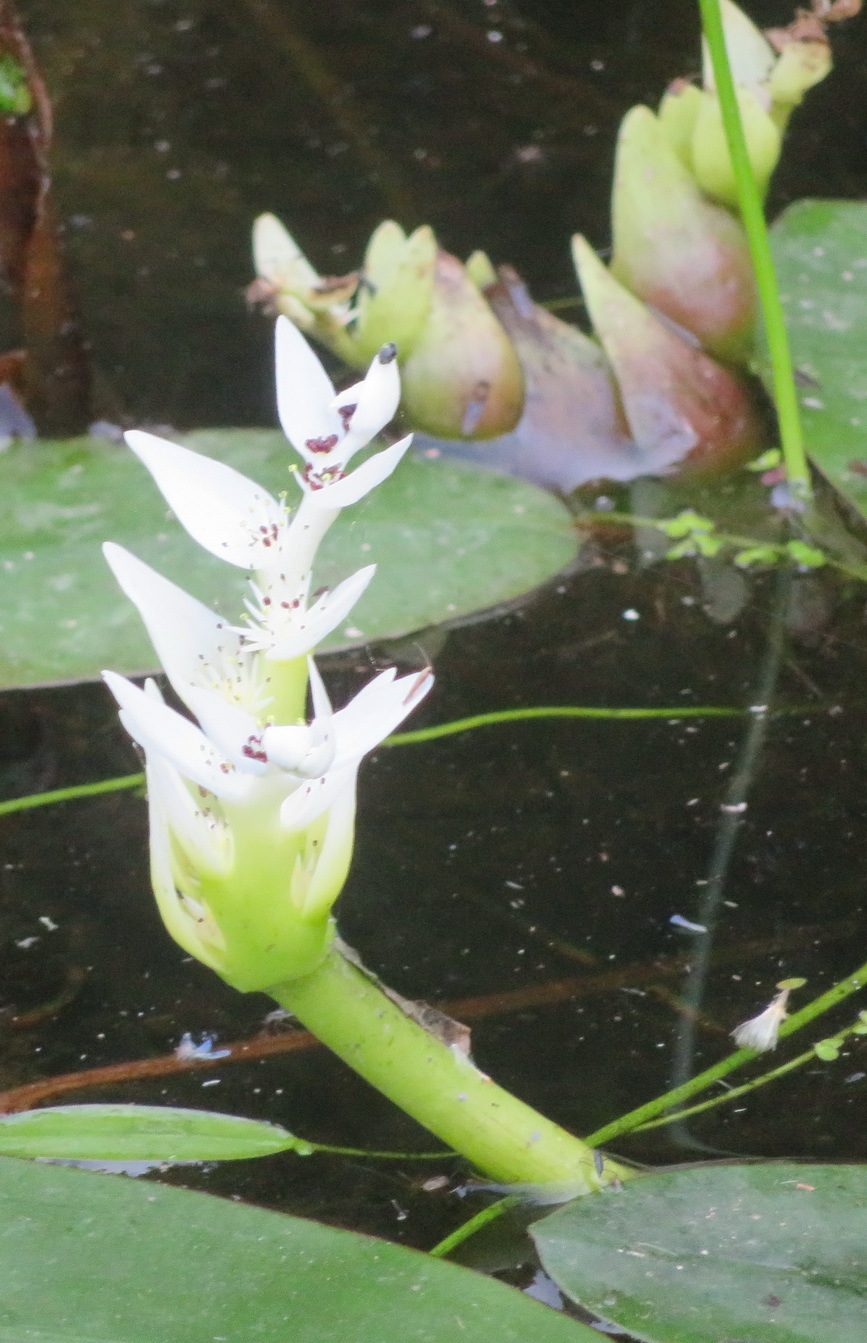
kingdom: Plantae
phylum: Tracheophyta
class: Liliopsida
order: Alismatales
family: Aponogetonaceae
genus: Aponogeton
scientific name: Aponogeton distachyos
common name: Cape-pondweed
